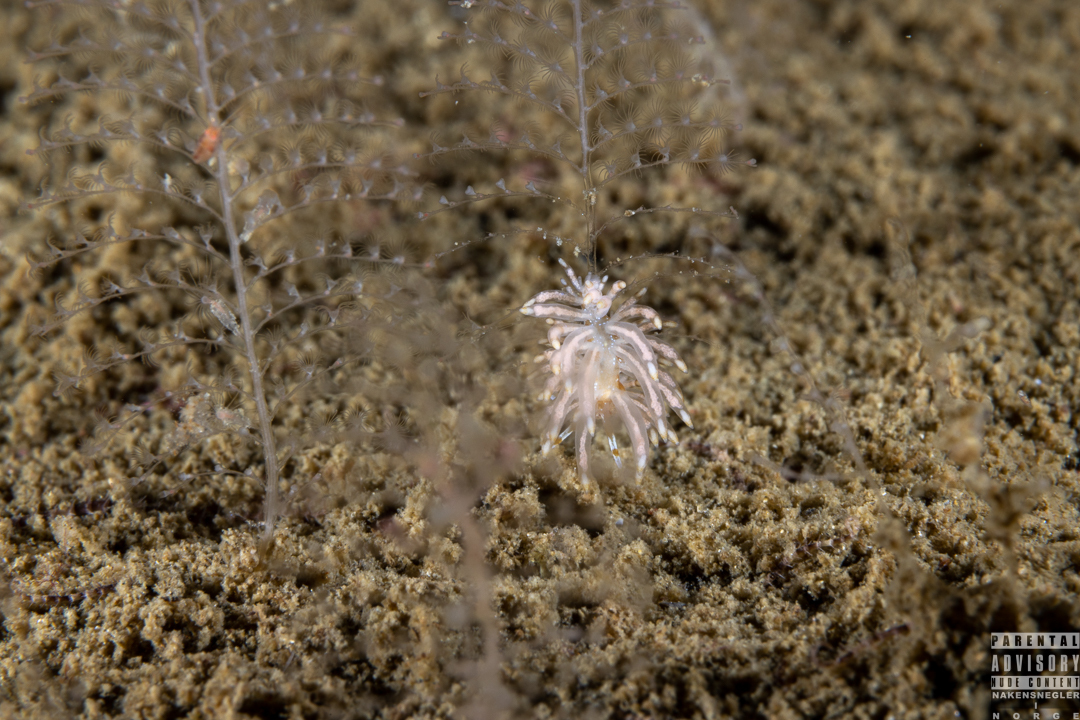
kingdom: Animalia
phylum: Mollusca
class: Gastropoda
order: Nudibranchia
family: Eubranchidae
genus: Eubranchus
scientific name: Eubranchus vittatus
